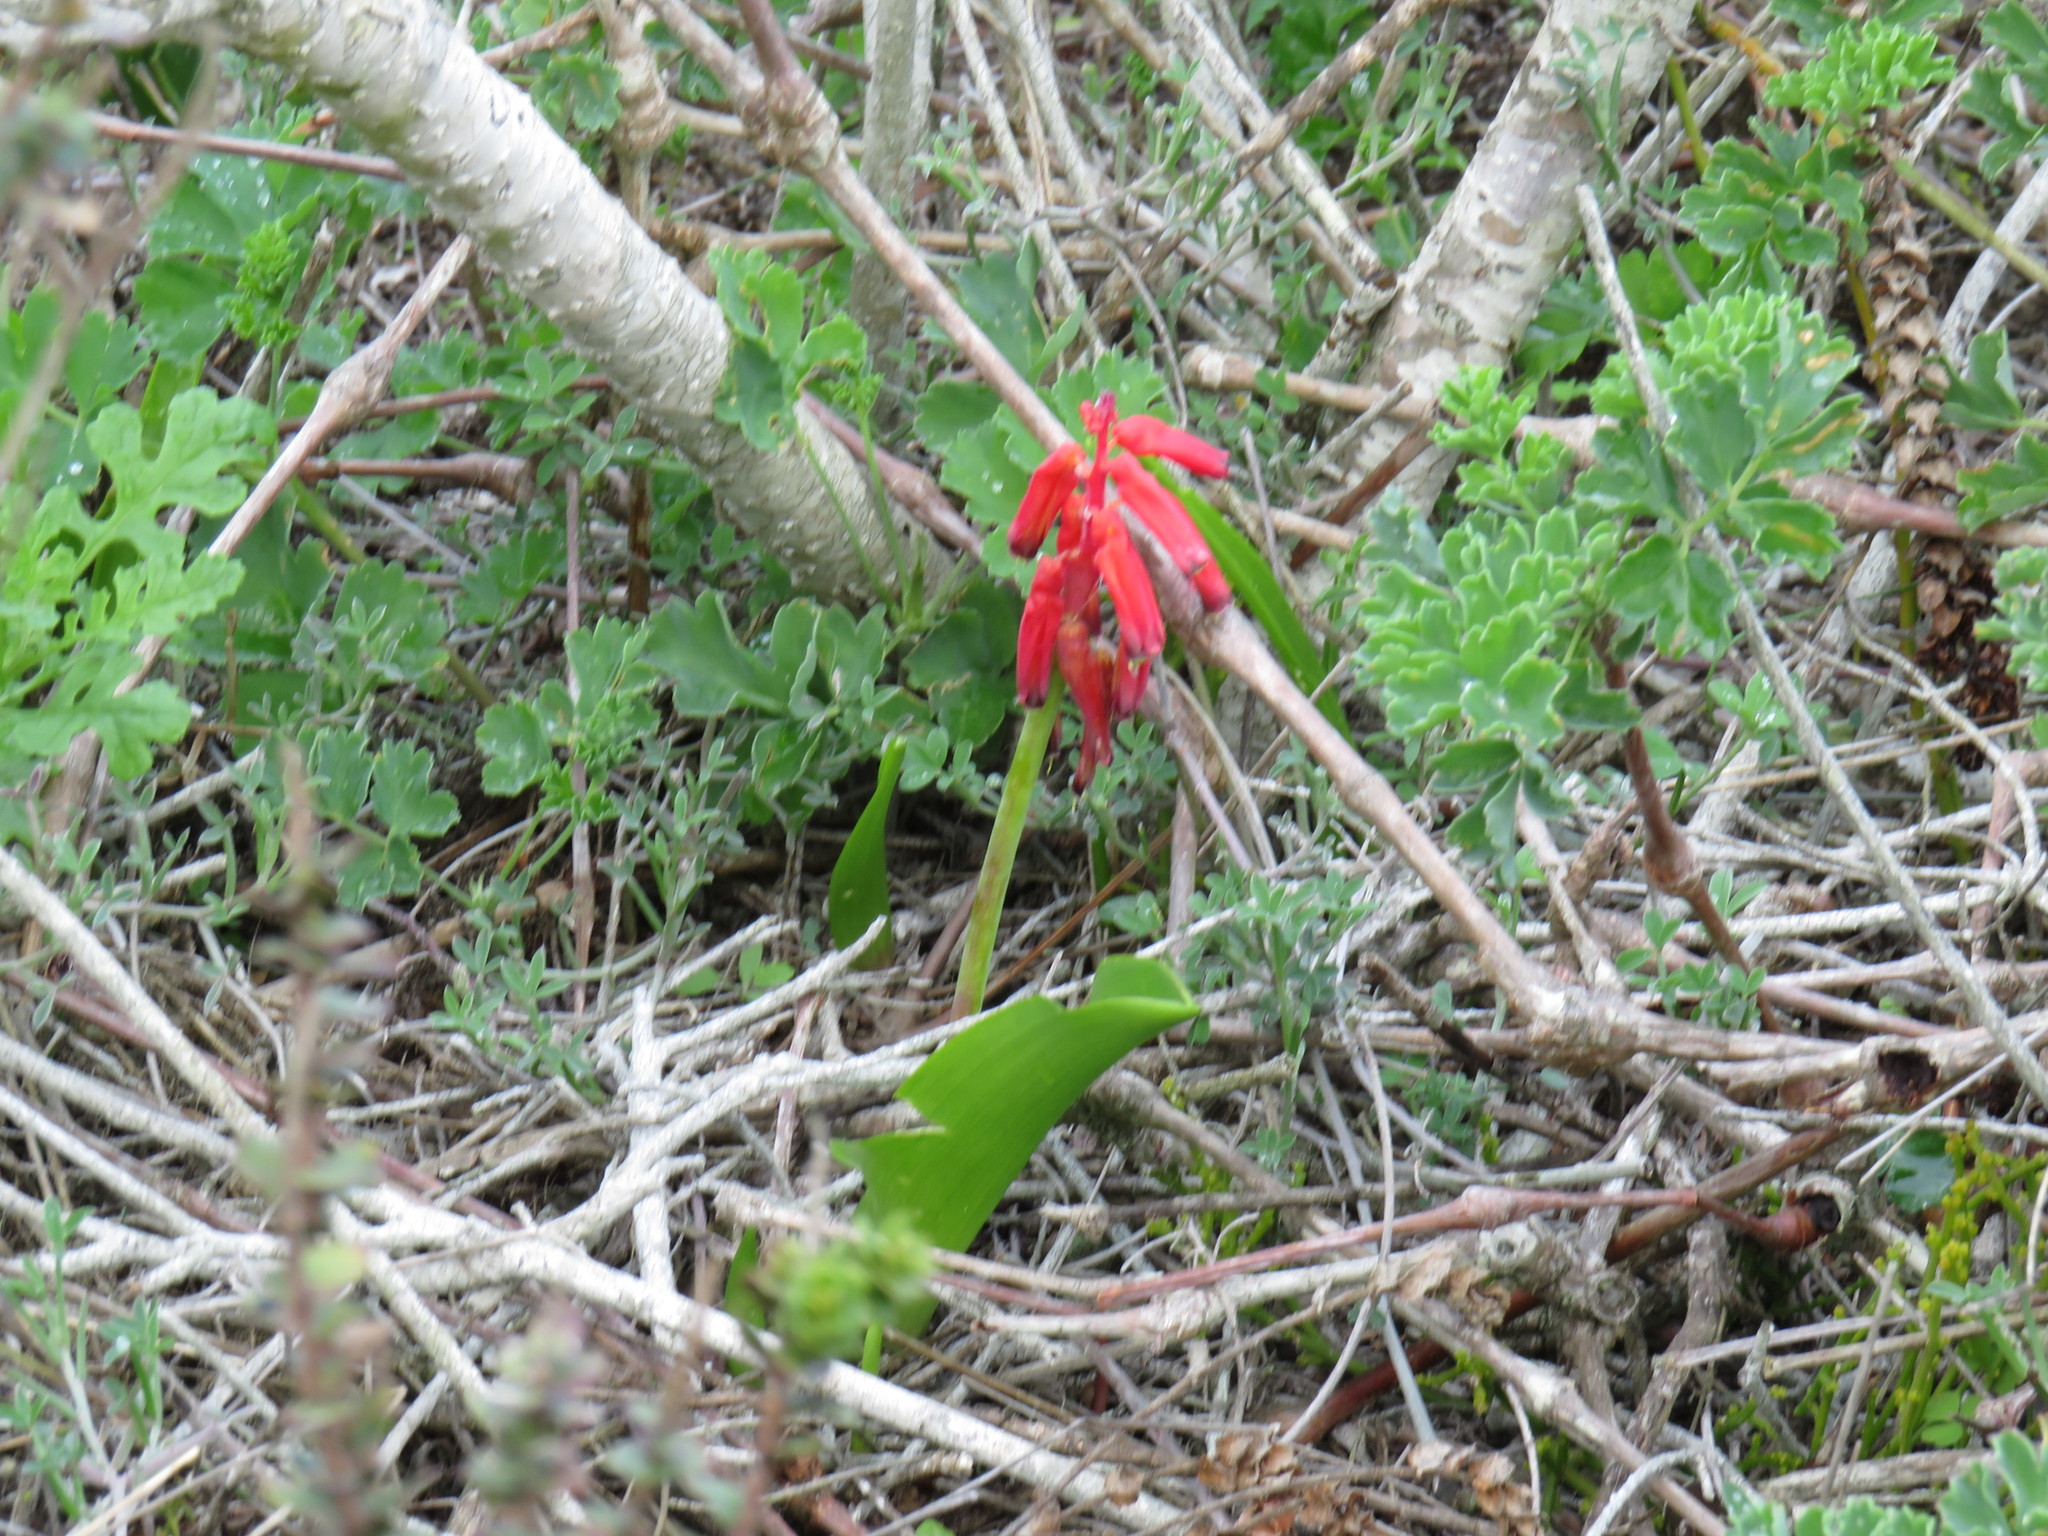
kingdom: Plantae
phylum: Tracheophyta
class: Liliopsida
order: Asparagales
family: Asparagaceae
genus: Lachenalia
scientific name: Lachenalia bulbifera
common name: Red lachenalia
